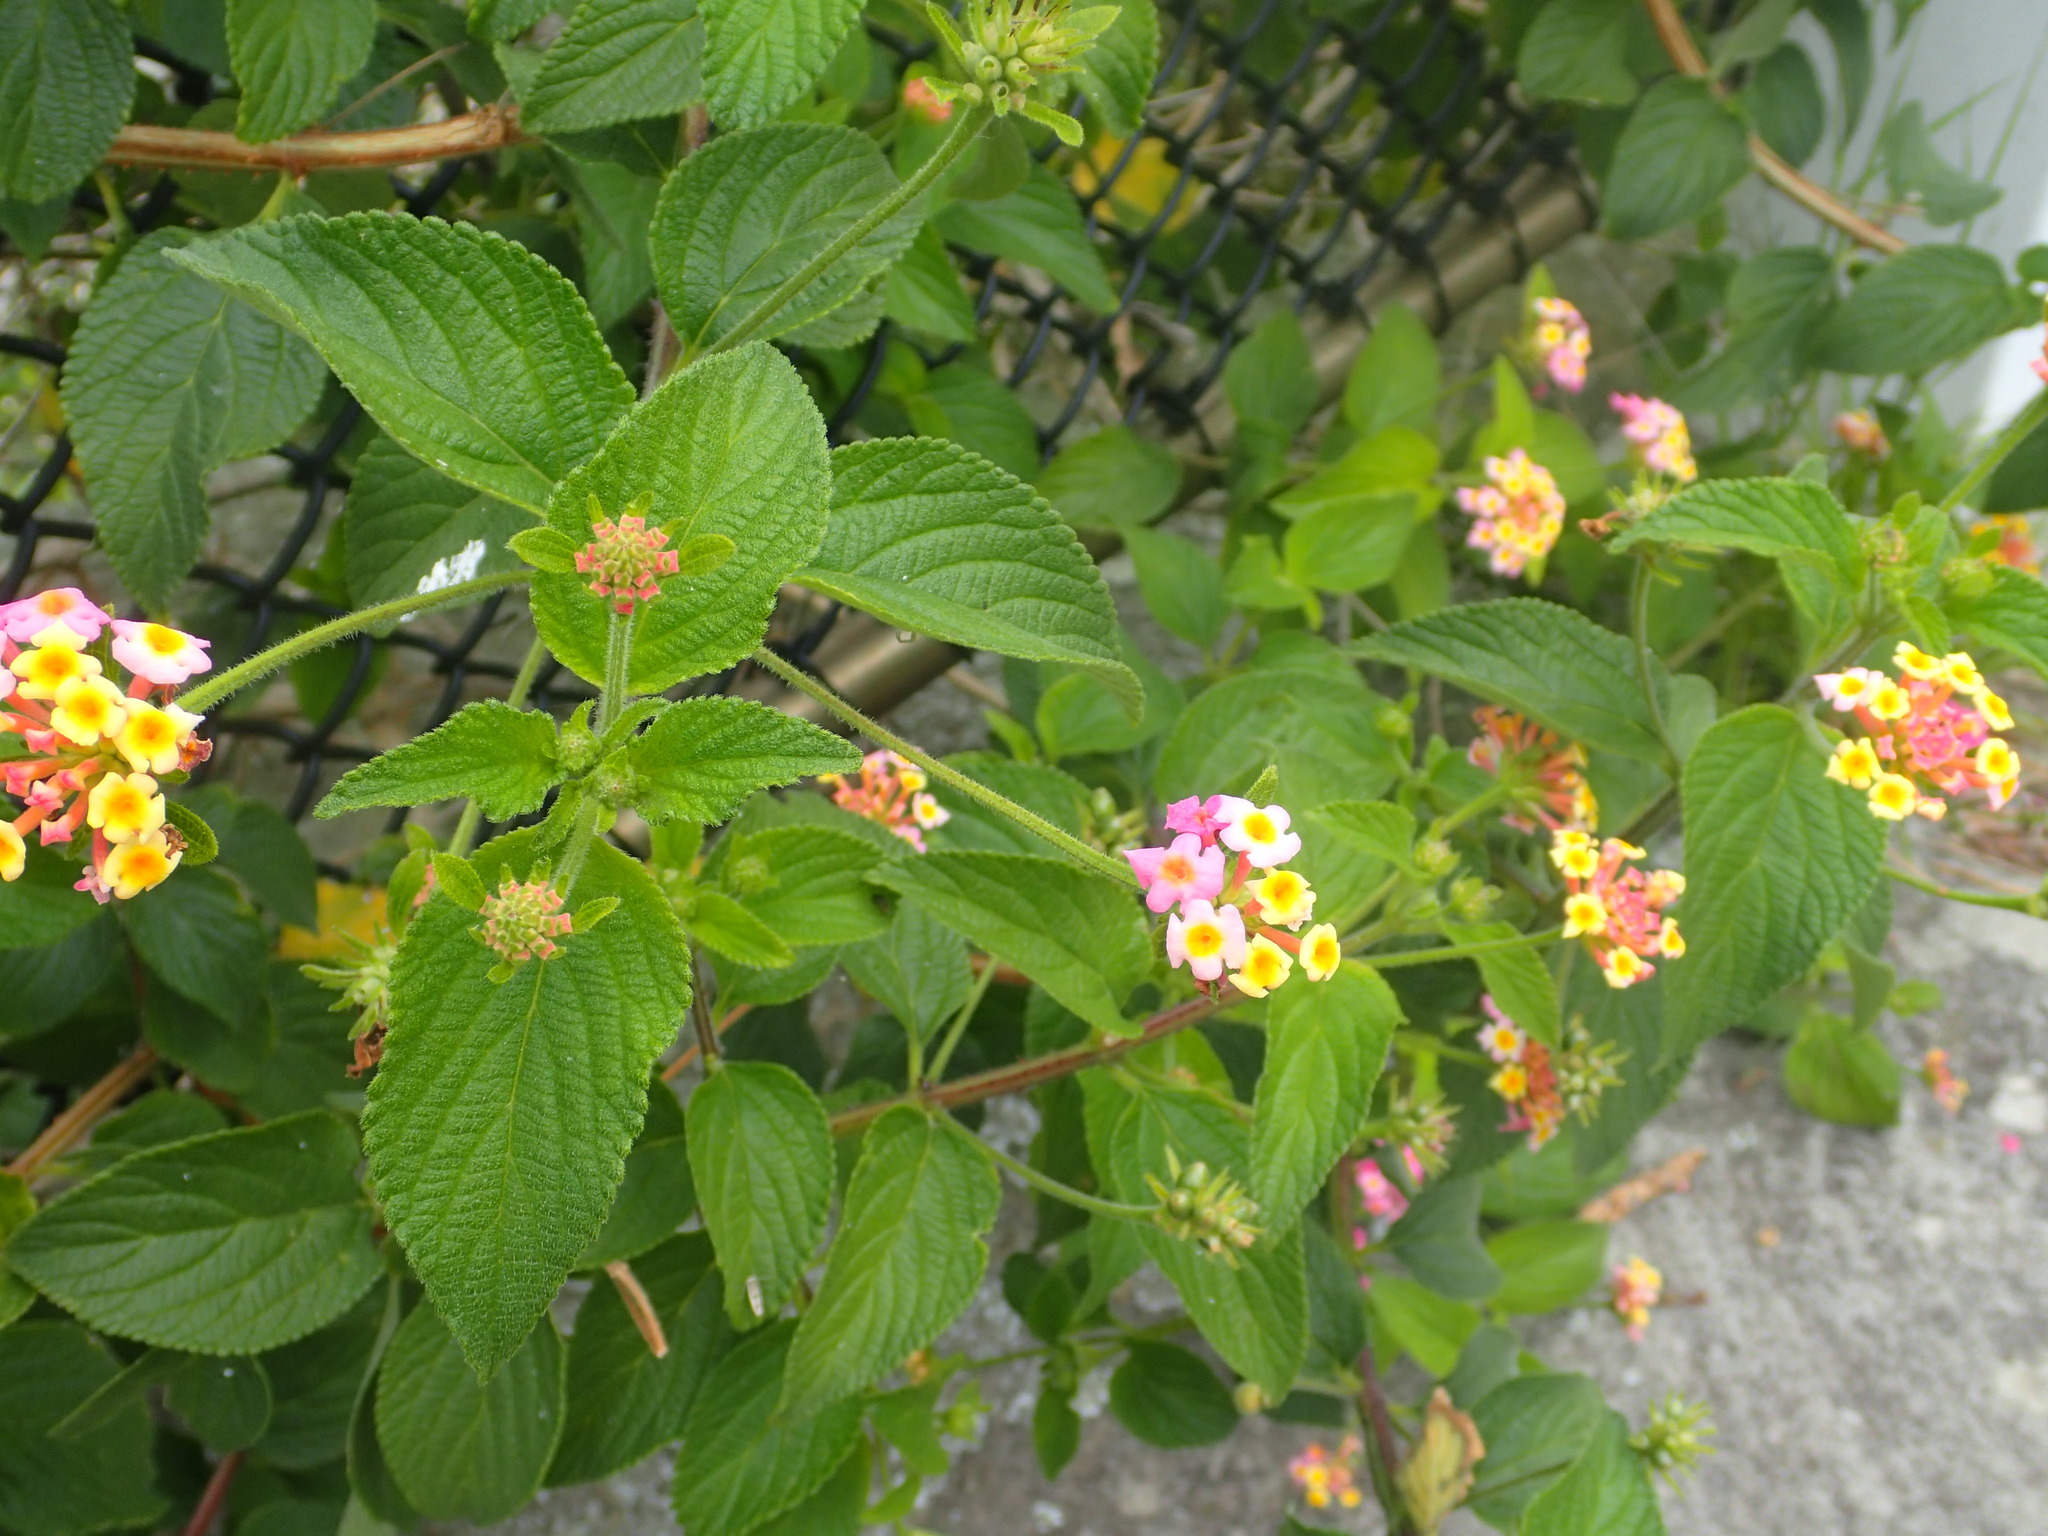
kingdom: Plantae
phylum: Tracheophyta
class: Magnoliopsida
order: Lamiales
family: Verbenaceae
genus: Lantana
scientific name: Lantana camara
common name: Lantana
